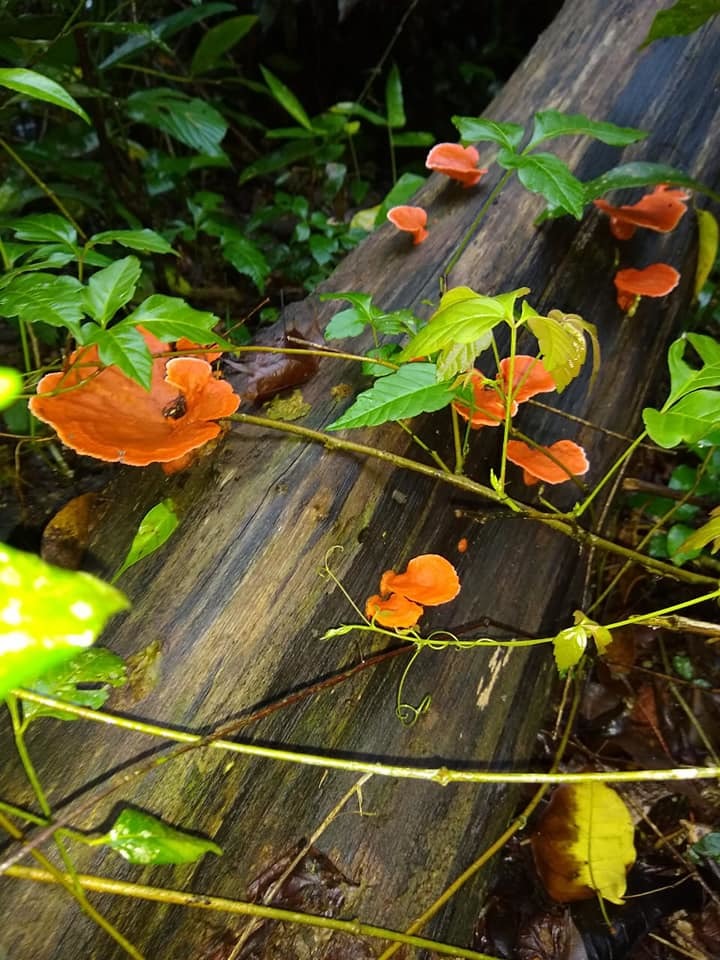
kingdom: Fungi
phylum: Basidiomycota
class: Agaricomycetes
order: Polyporales
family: Polyporaceae
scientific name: Polyporaceae
